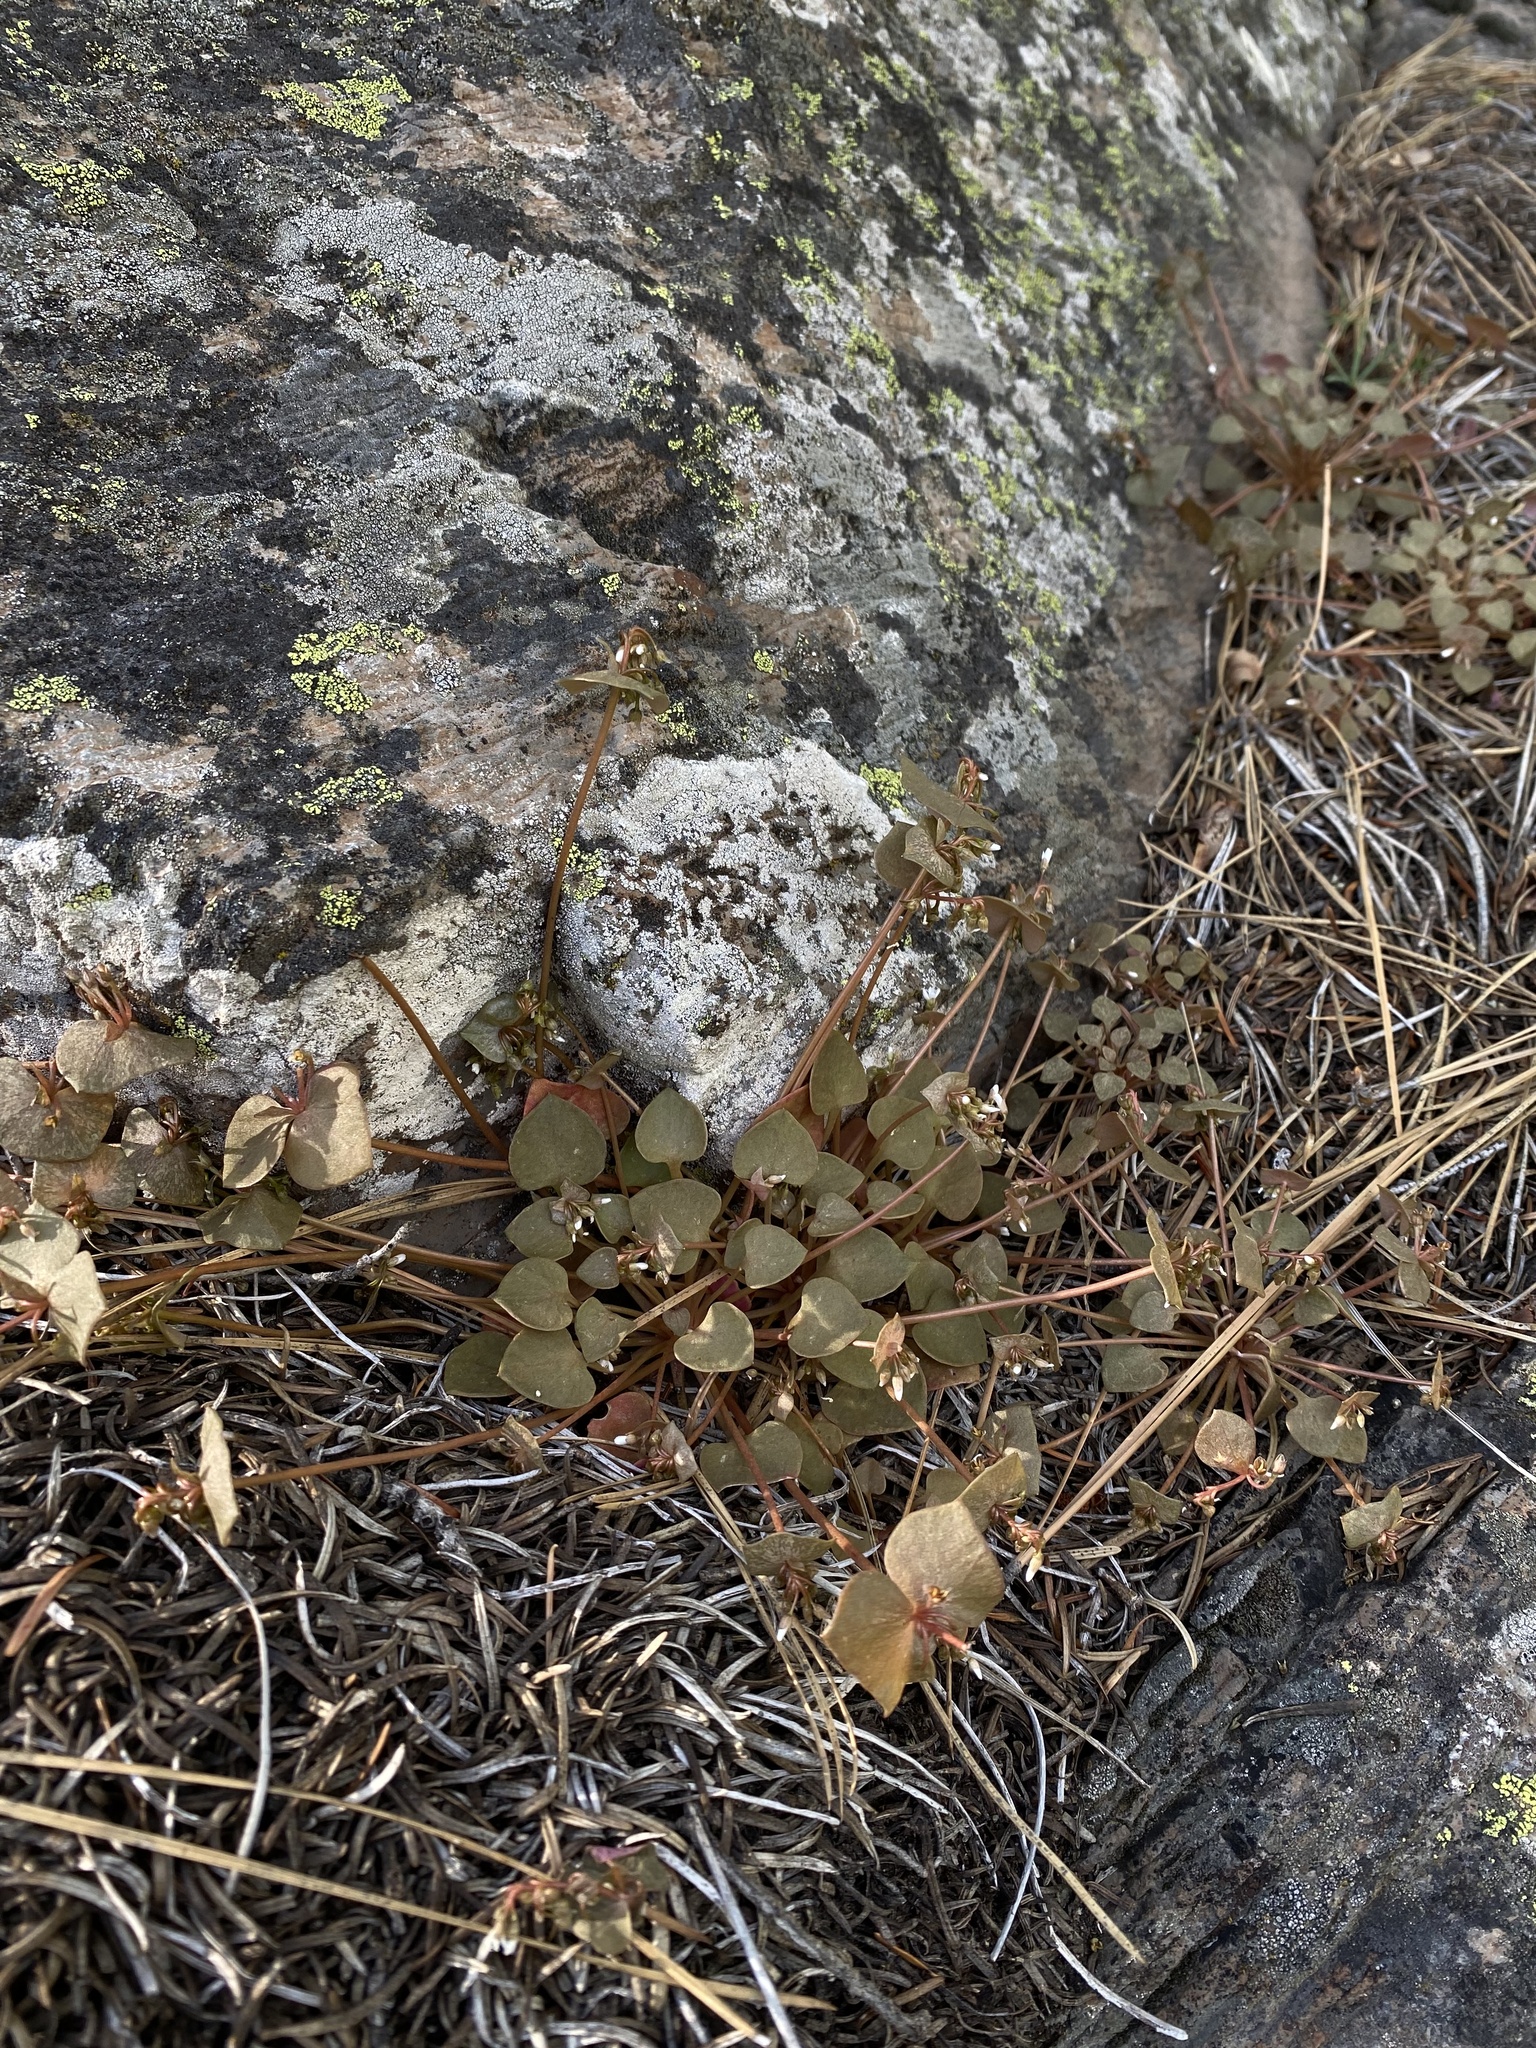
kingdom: Plantae
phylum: Tracheophyta
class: Magnoliopsida
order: Caryophyllales
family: Montiaceae
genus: Claytonia
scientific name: Claytonia rubra
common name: Erubescent miner's-lettuce
